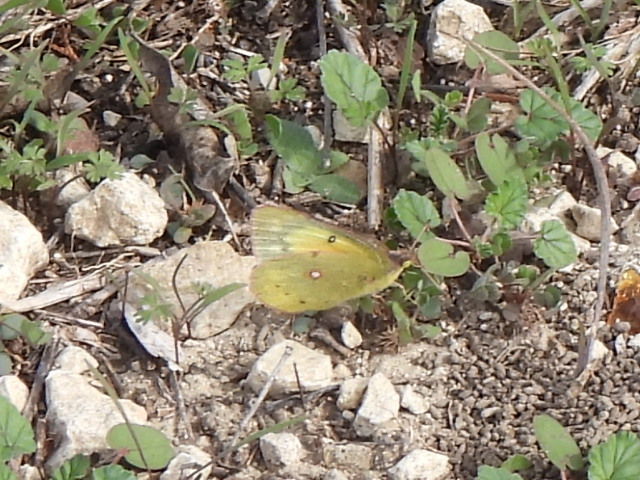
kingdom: Animalia
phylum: Arthropoda
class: Insecta
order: Lepidoptera
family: Pieridae
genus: Colias
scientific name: Colias eurytheme
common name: Alfalfa butterfly
